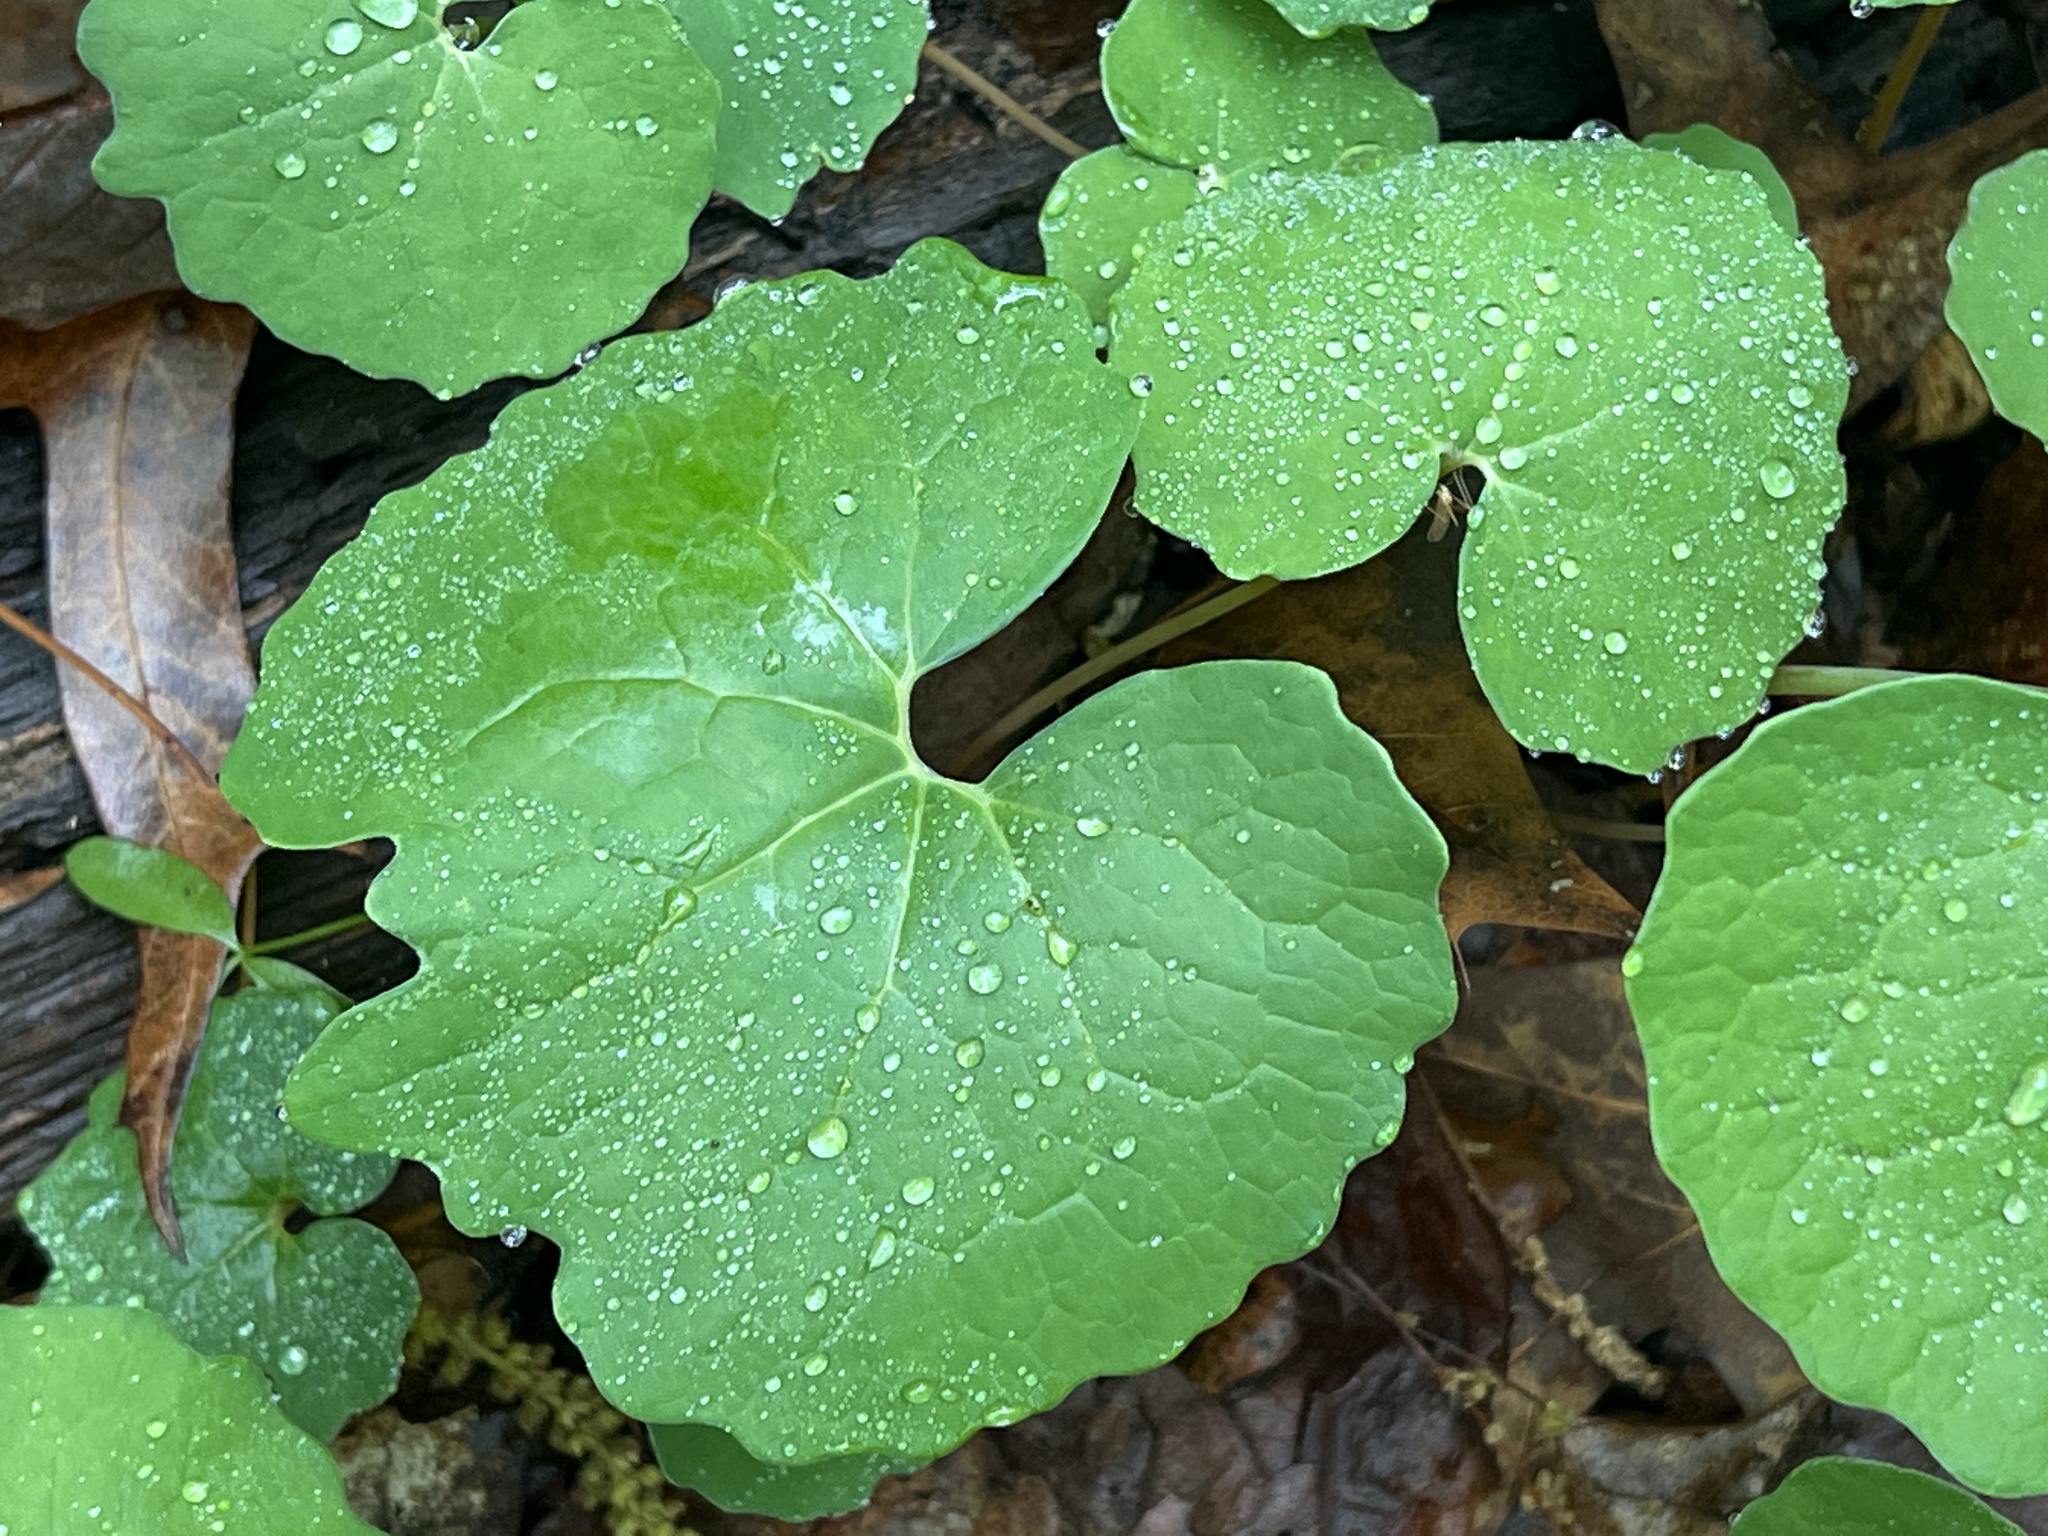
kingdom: Plantae
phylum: Tracheophyta
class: Magnoliopsida
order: Ranunculales
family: Papaveraceae
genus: Sanguinaria
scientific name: Sanguinaria canadensis
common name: Bloodroot
